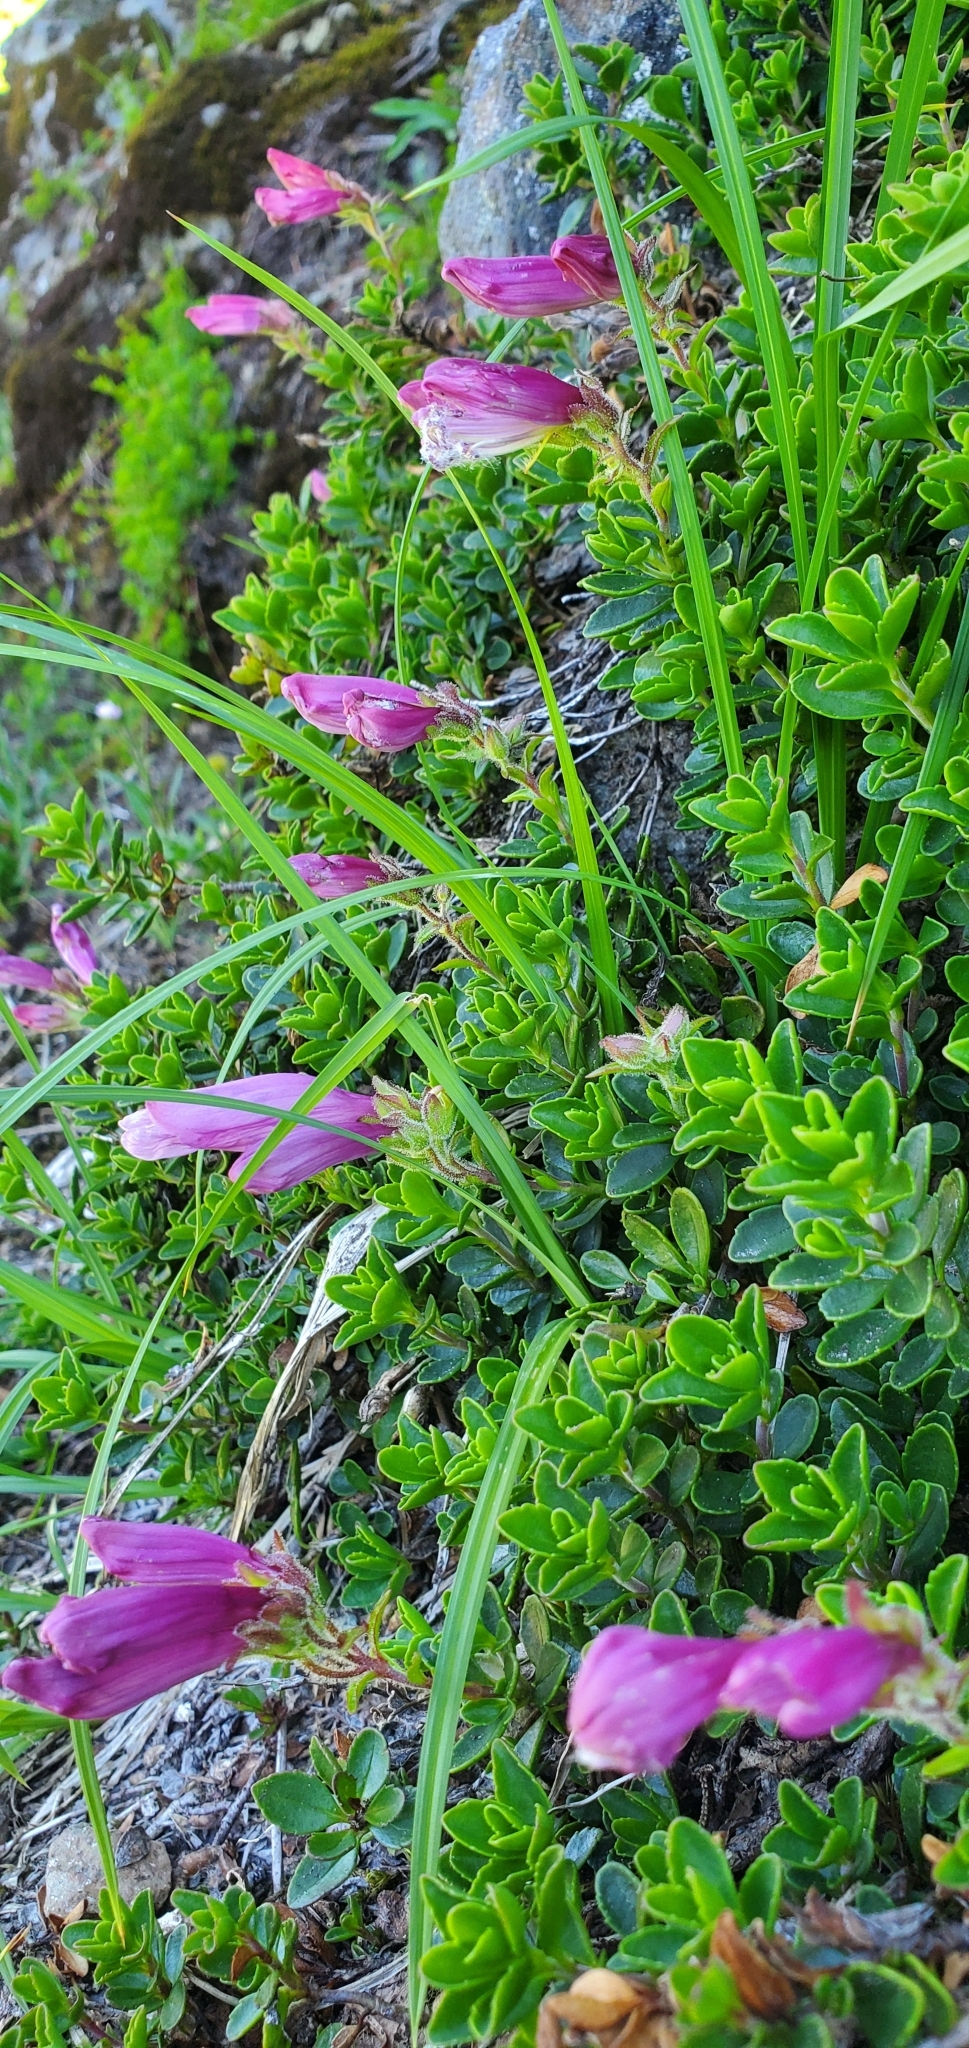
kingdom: Plantae
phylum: Tracheophyta
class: Magnoliopsida
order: Lamiales
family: Plantaginaceae
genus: Penstemon
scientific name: Penstemon davidsonii
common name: Davidson's penstemon
